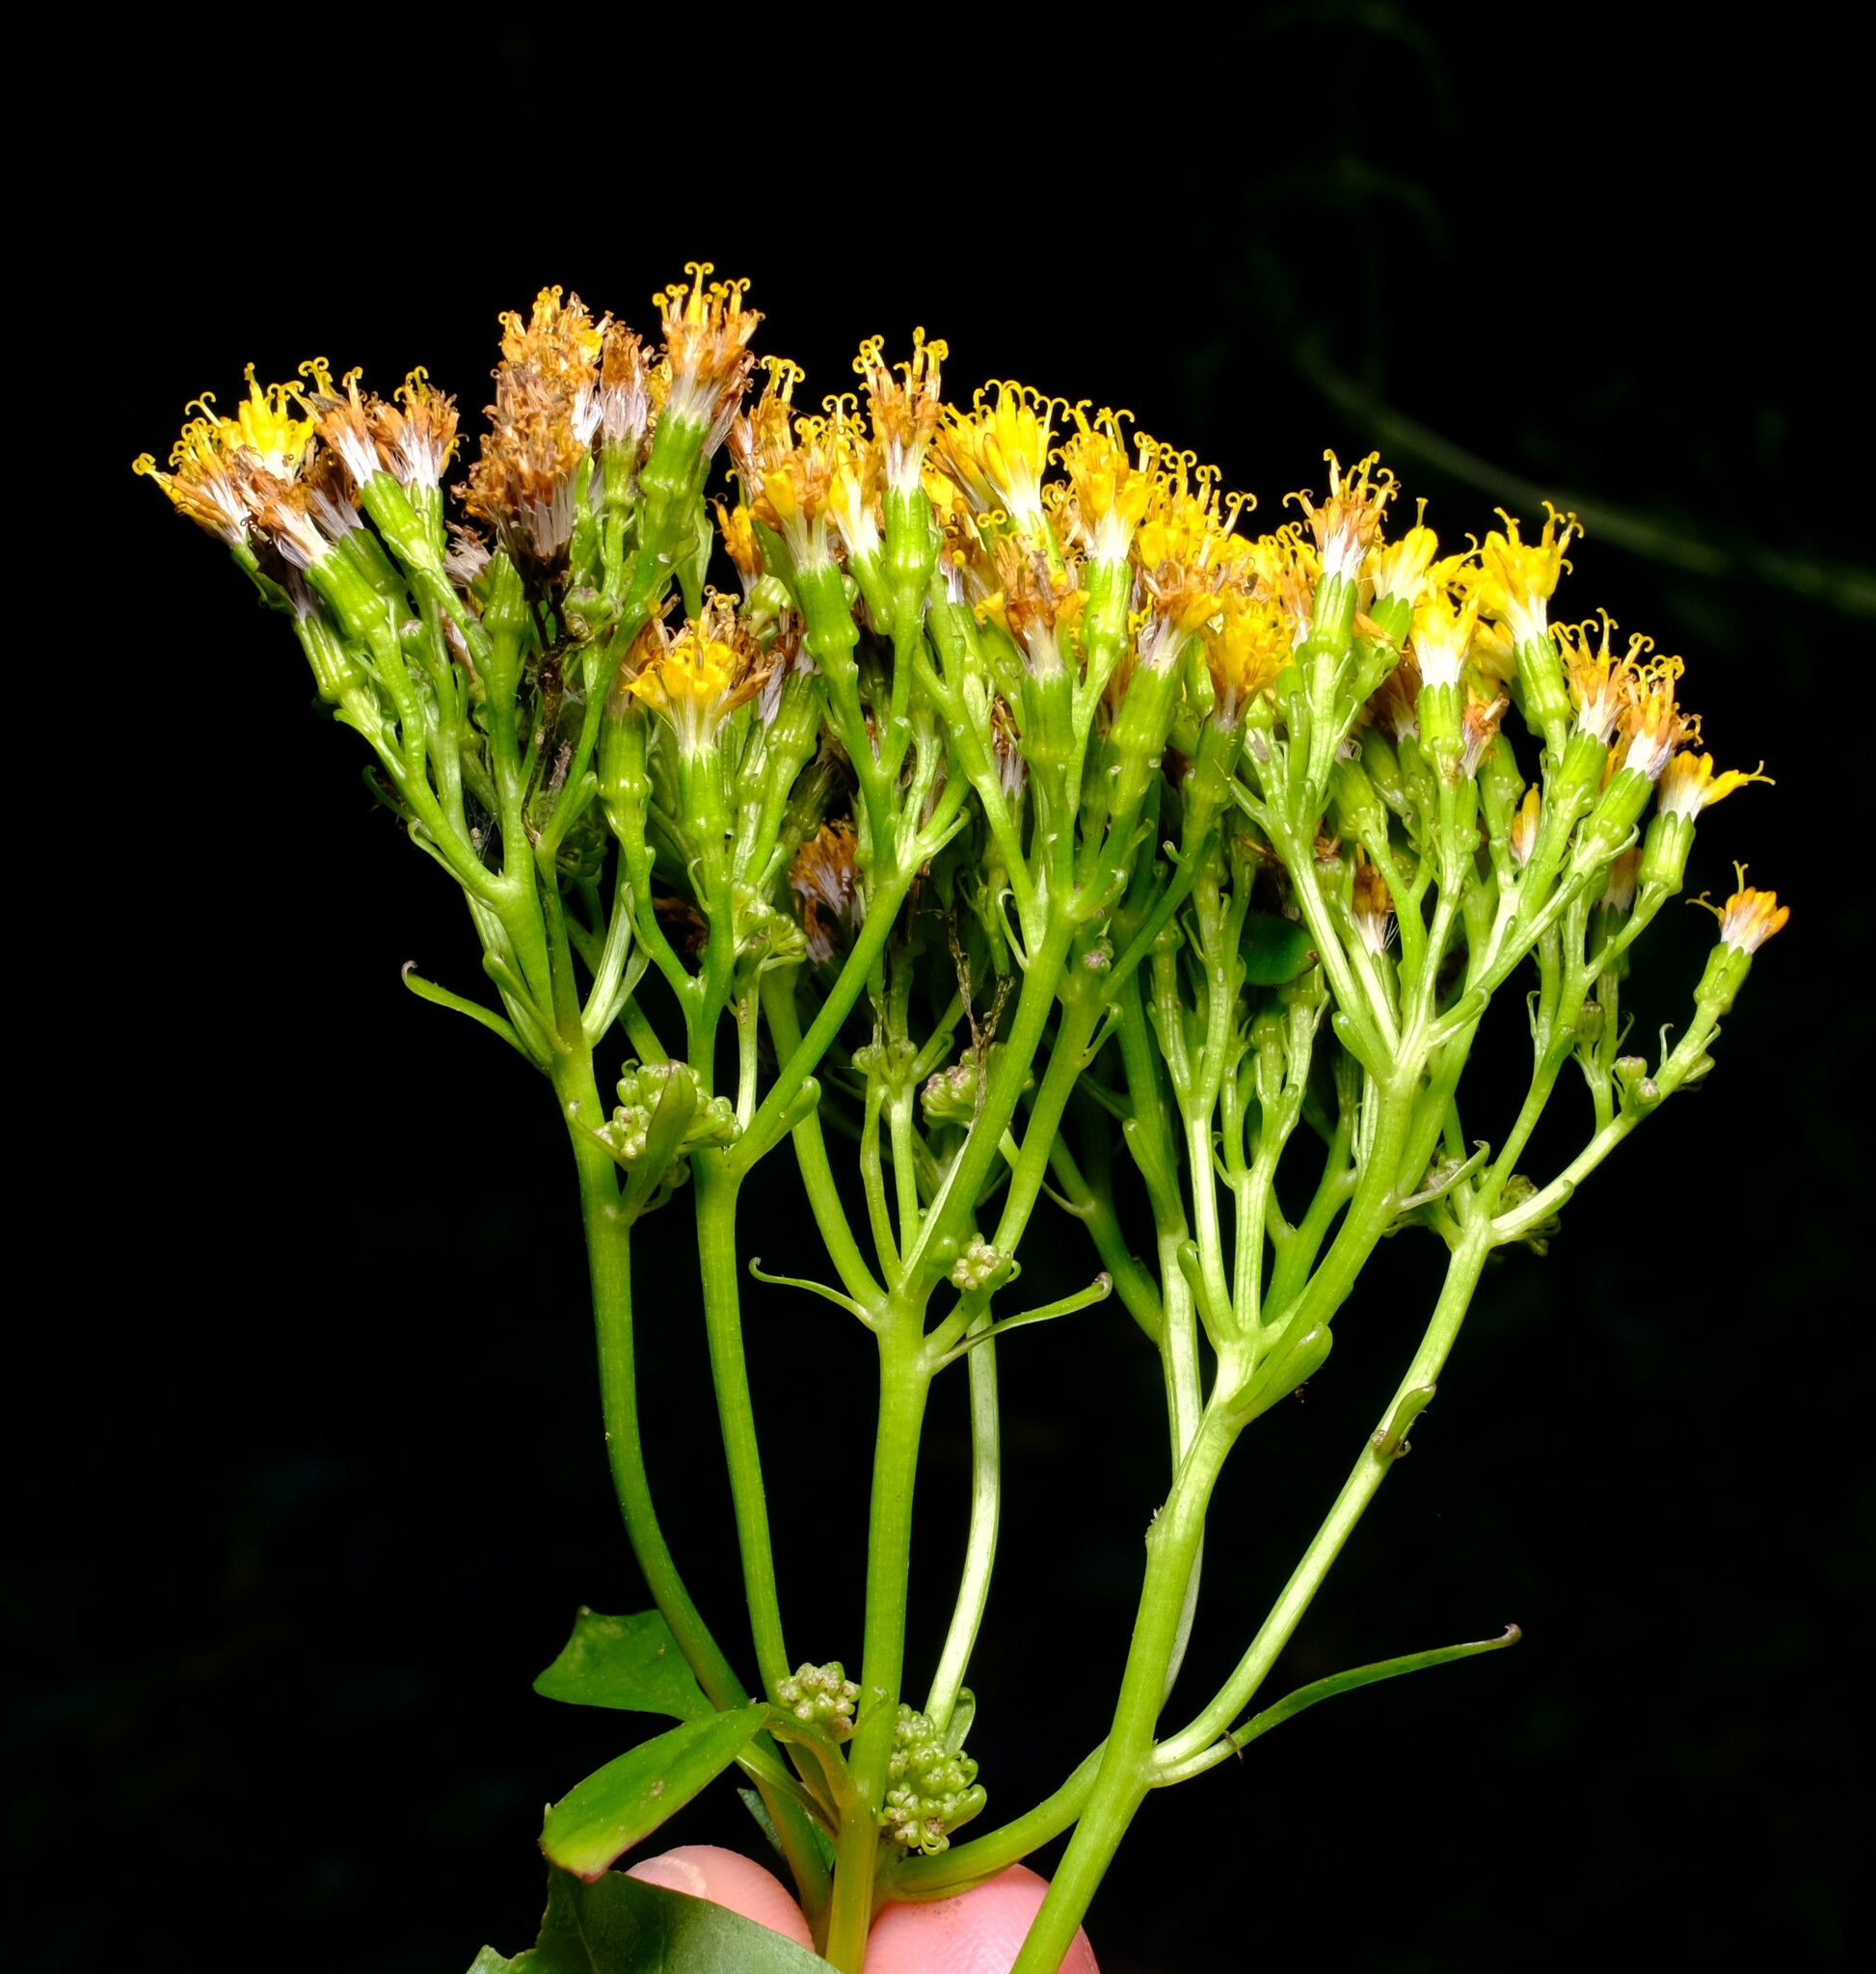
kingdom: Plantae
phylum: Tracheophyta
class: Magnoliopsida
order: Asterales
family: Asteraceae
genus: Delairea
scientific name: Delairea odorata
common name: Cape-ivy
